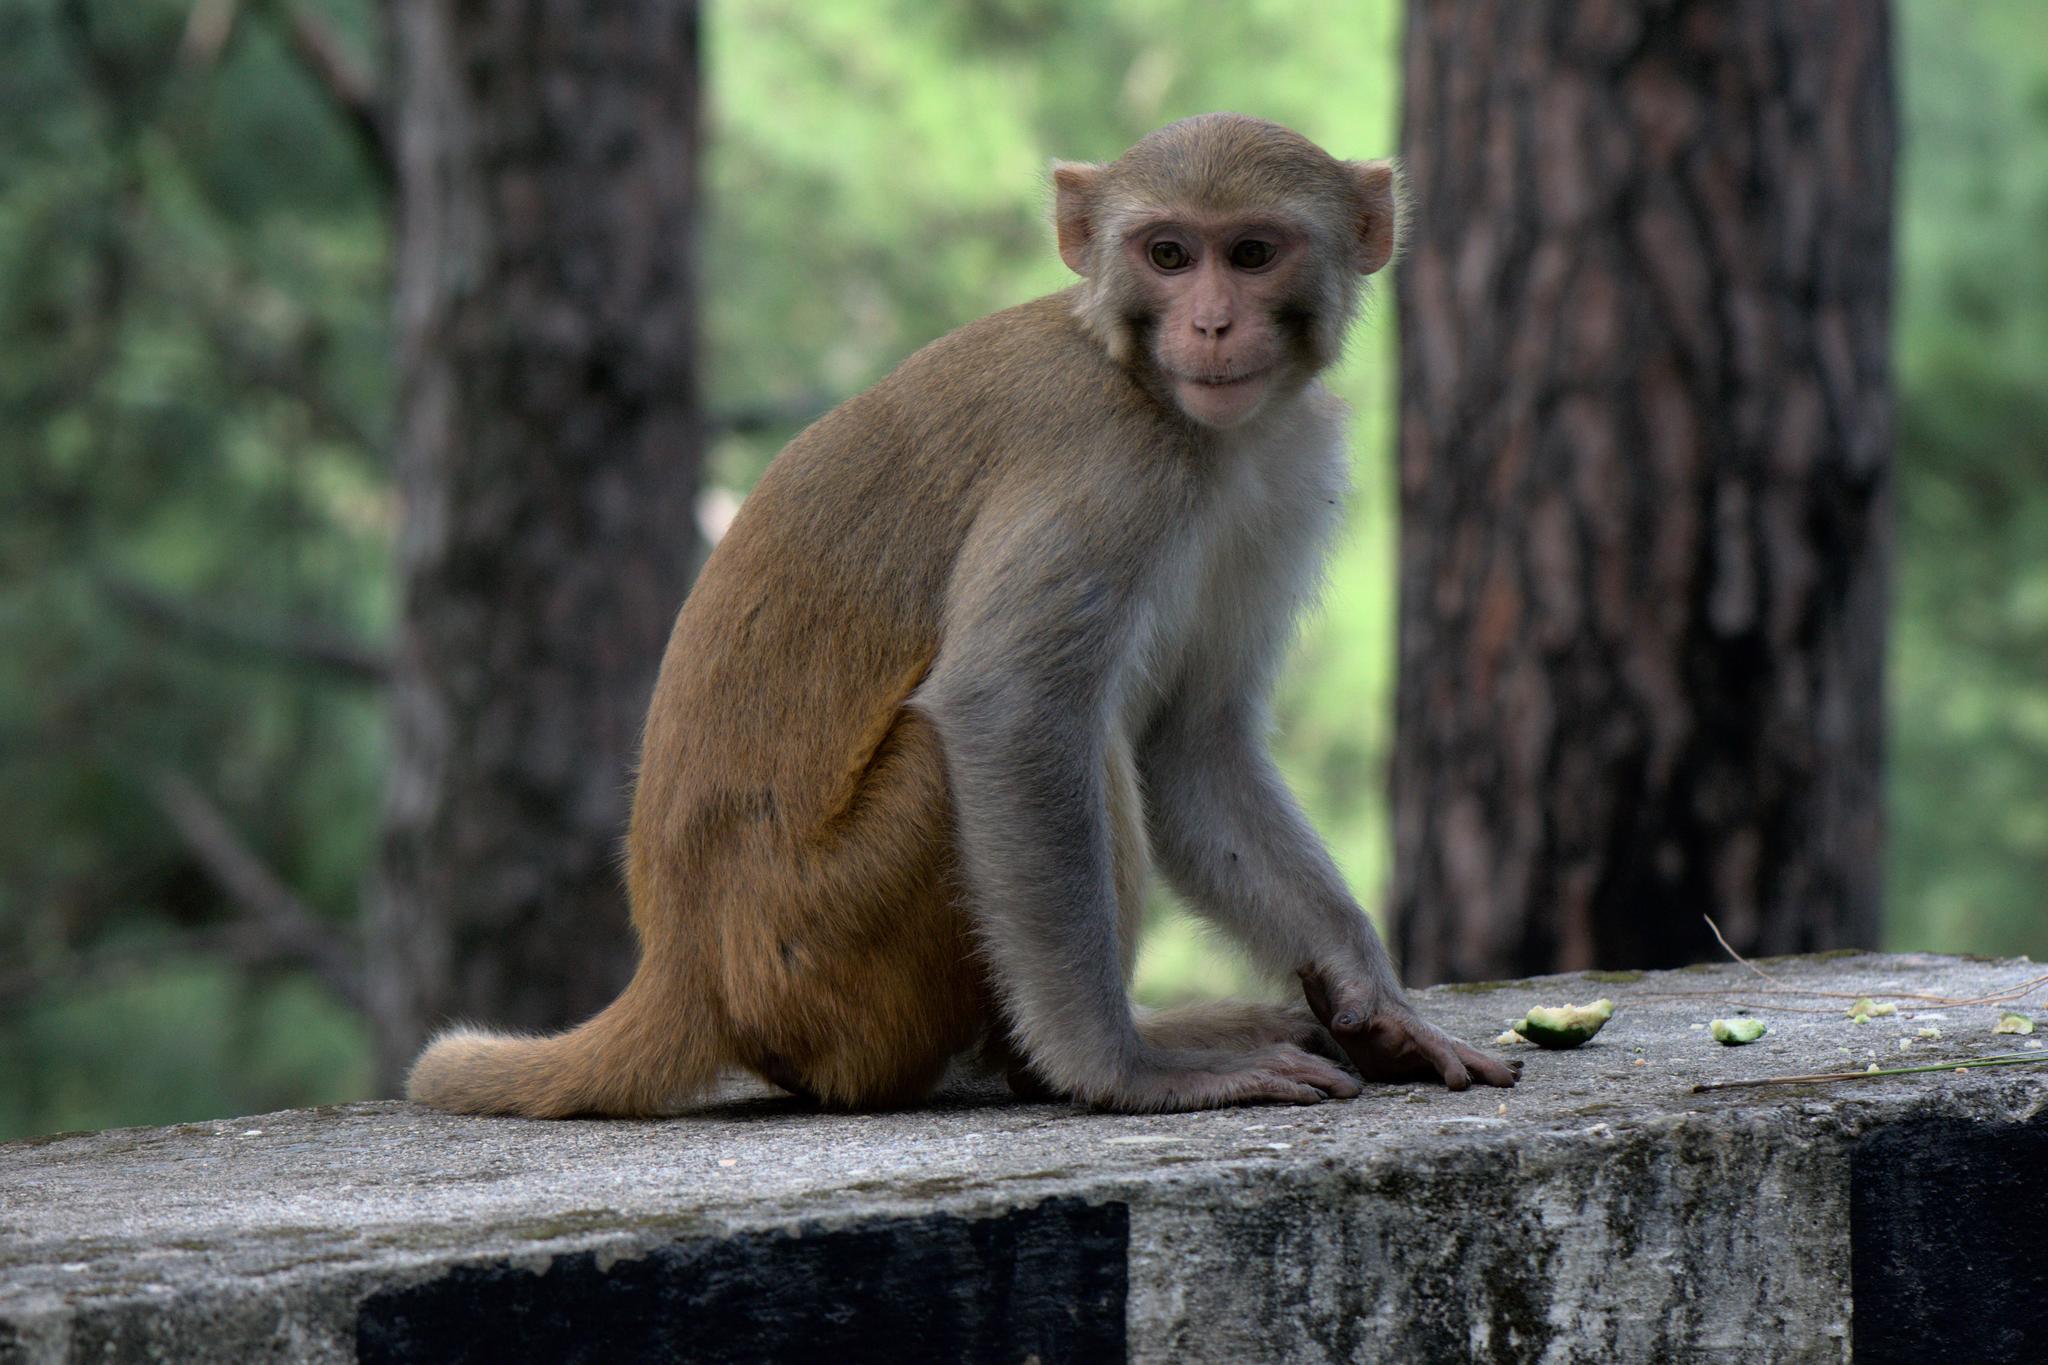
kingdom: Animalia
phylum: Chordata
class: Mammalia
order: Primates
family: Cercopithecidae
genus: Macaca
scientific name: Macaca mulatta
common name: Rhesus monkey
